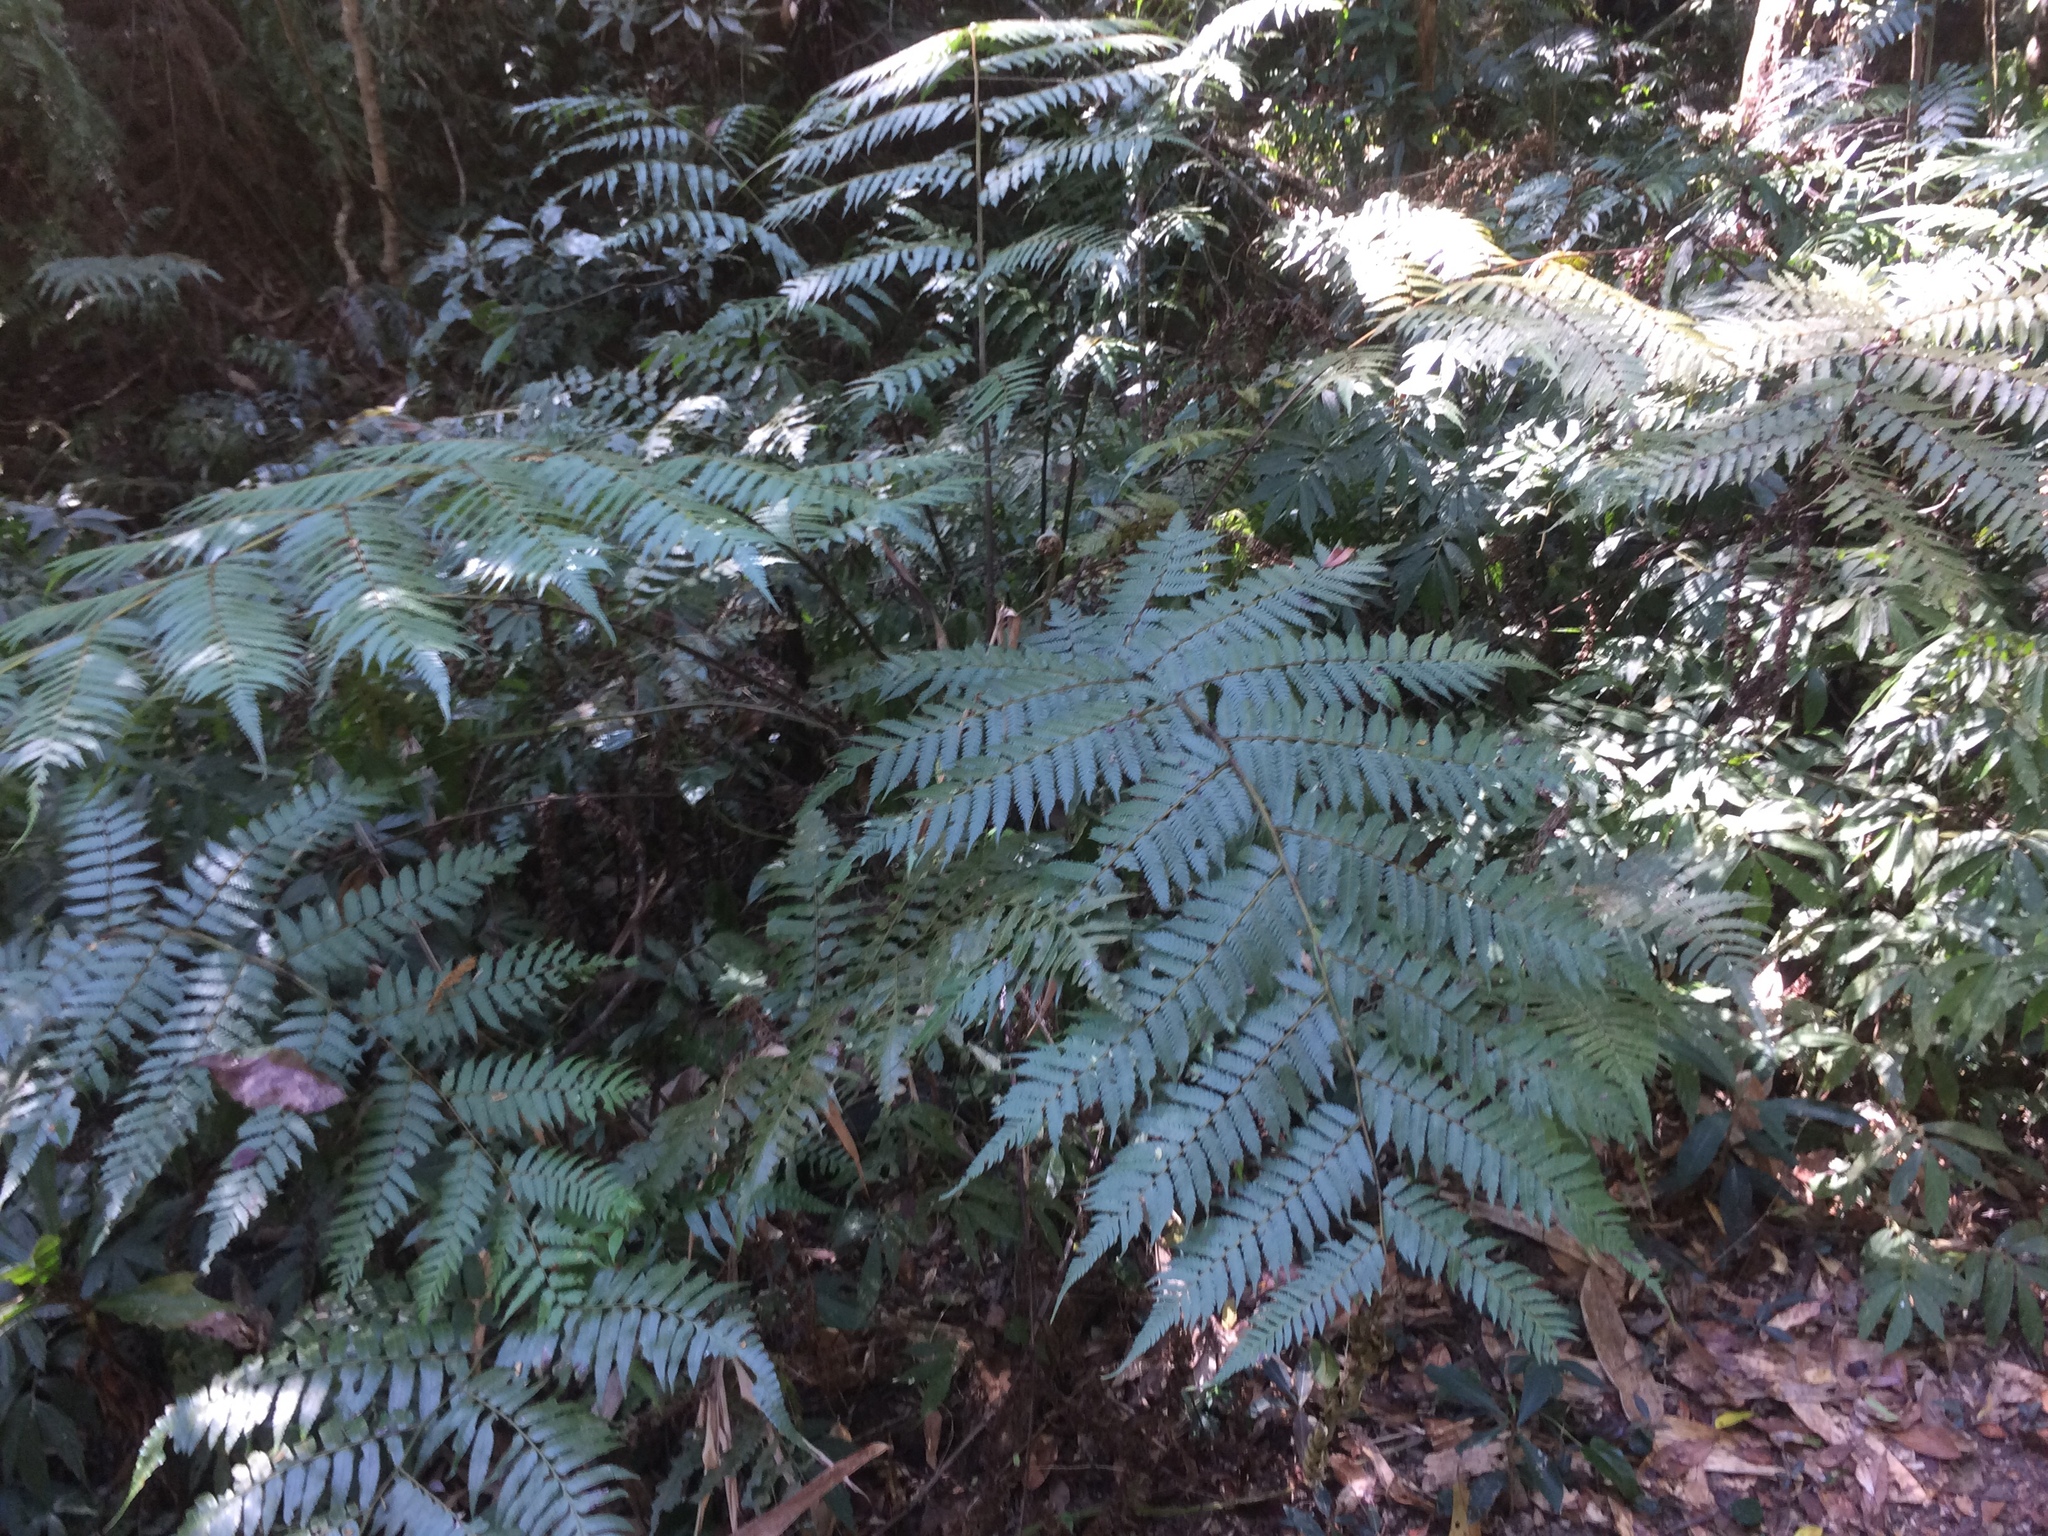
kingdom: Plantae
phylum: Tracheophyta
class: Polypodiopsida
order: Cyatheales
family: Cyatheaceae
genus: Alsophila
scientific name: Alsophila spinulosa
